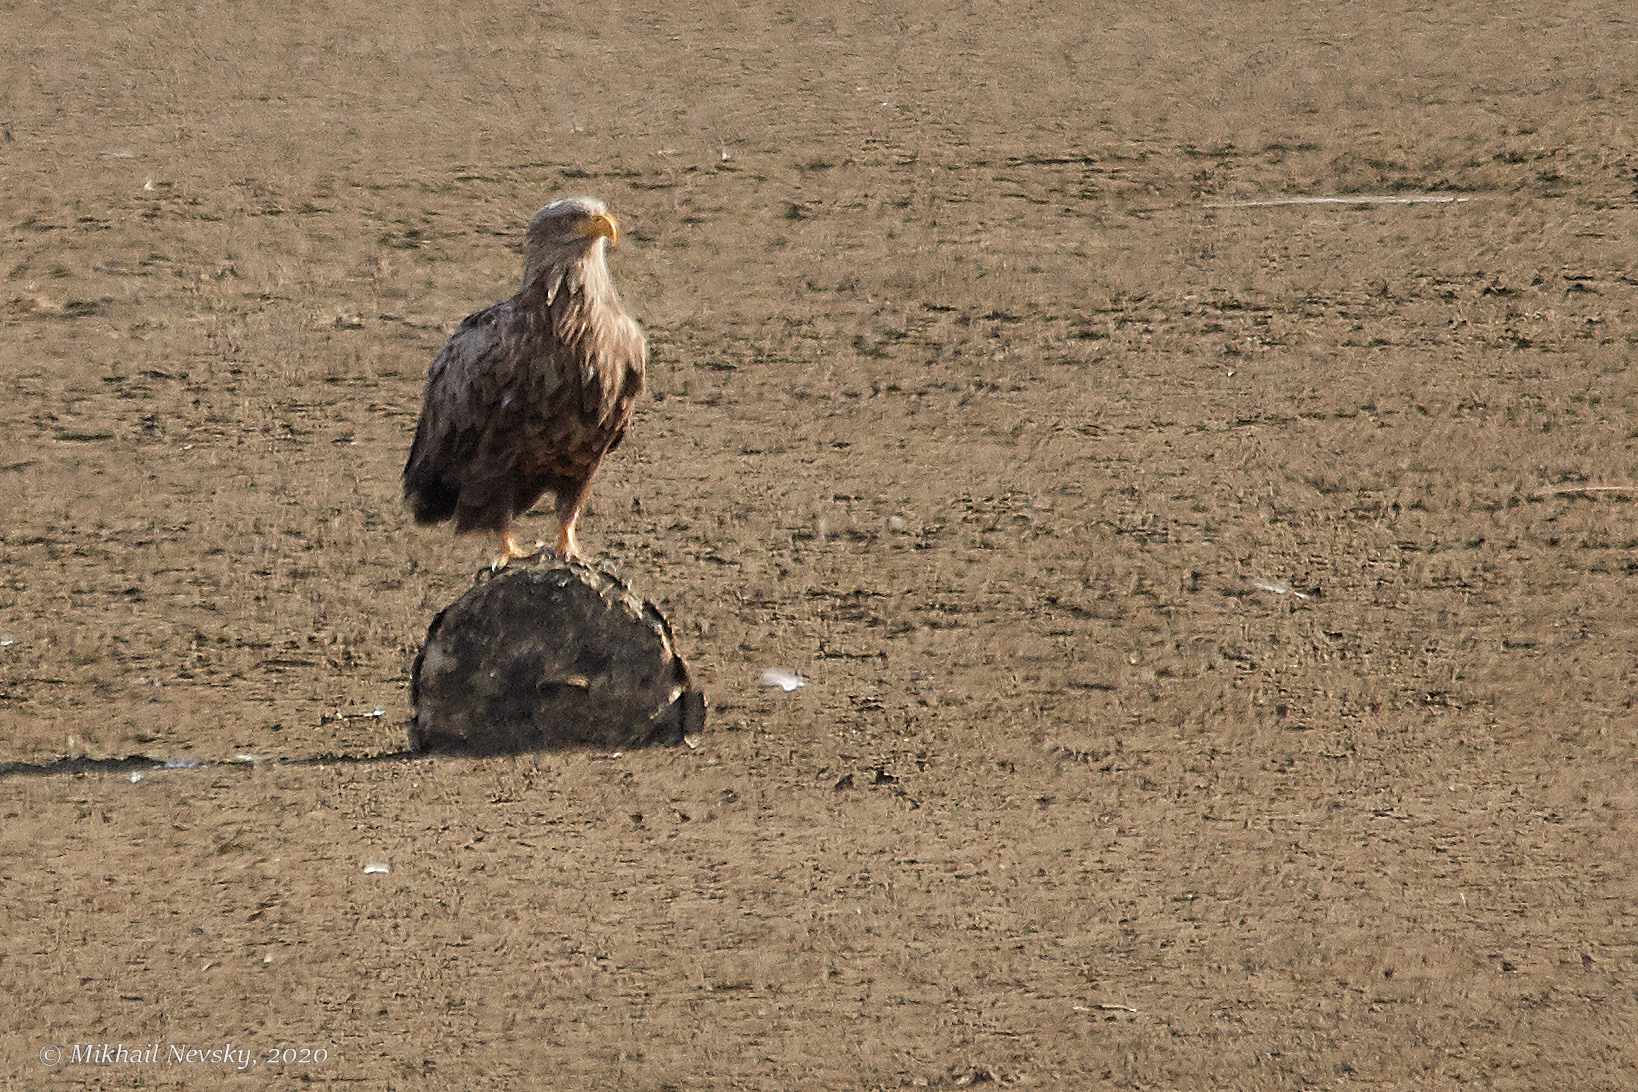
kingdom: Animalia
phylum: Chordata
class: Aves
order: Accipitriformes
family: Accipitridae
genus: Haliaeetus
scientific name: Haliaeetus albicilla
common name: White-tailed eagle
